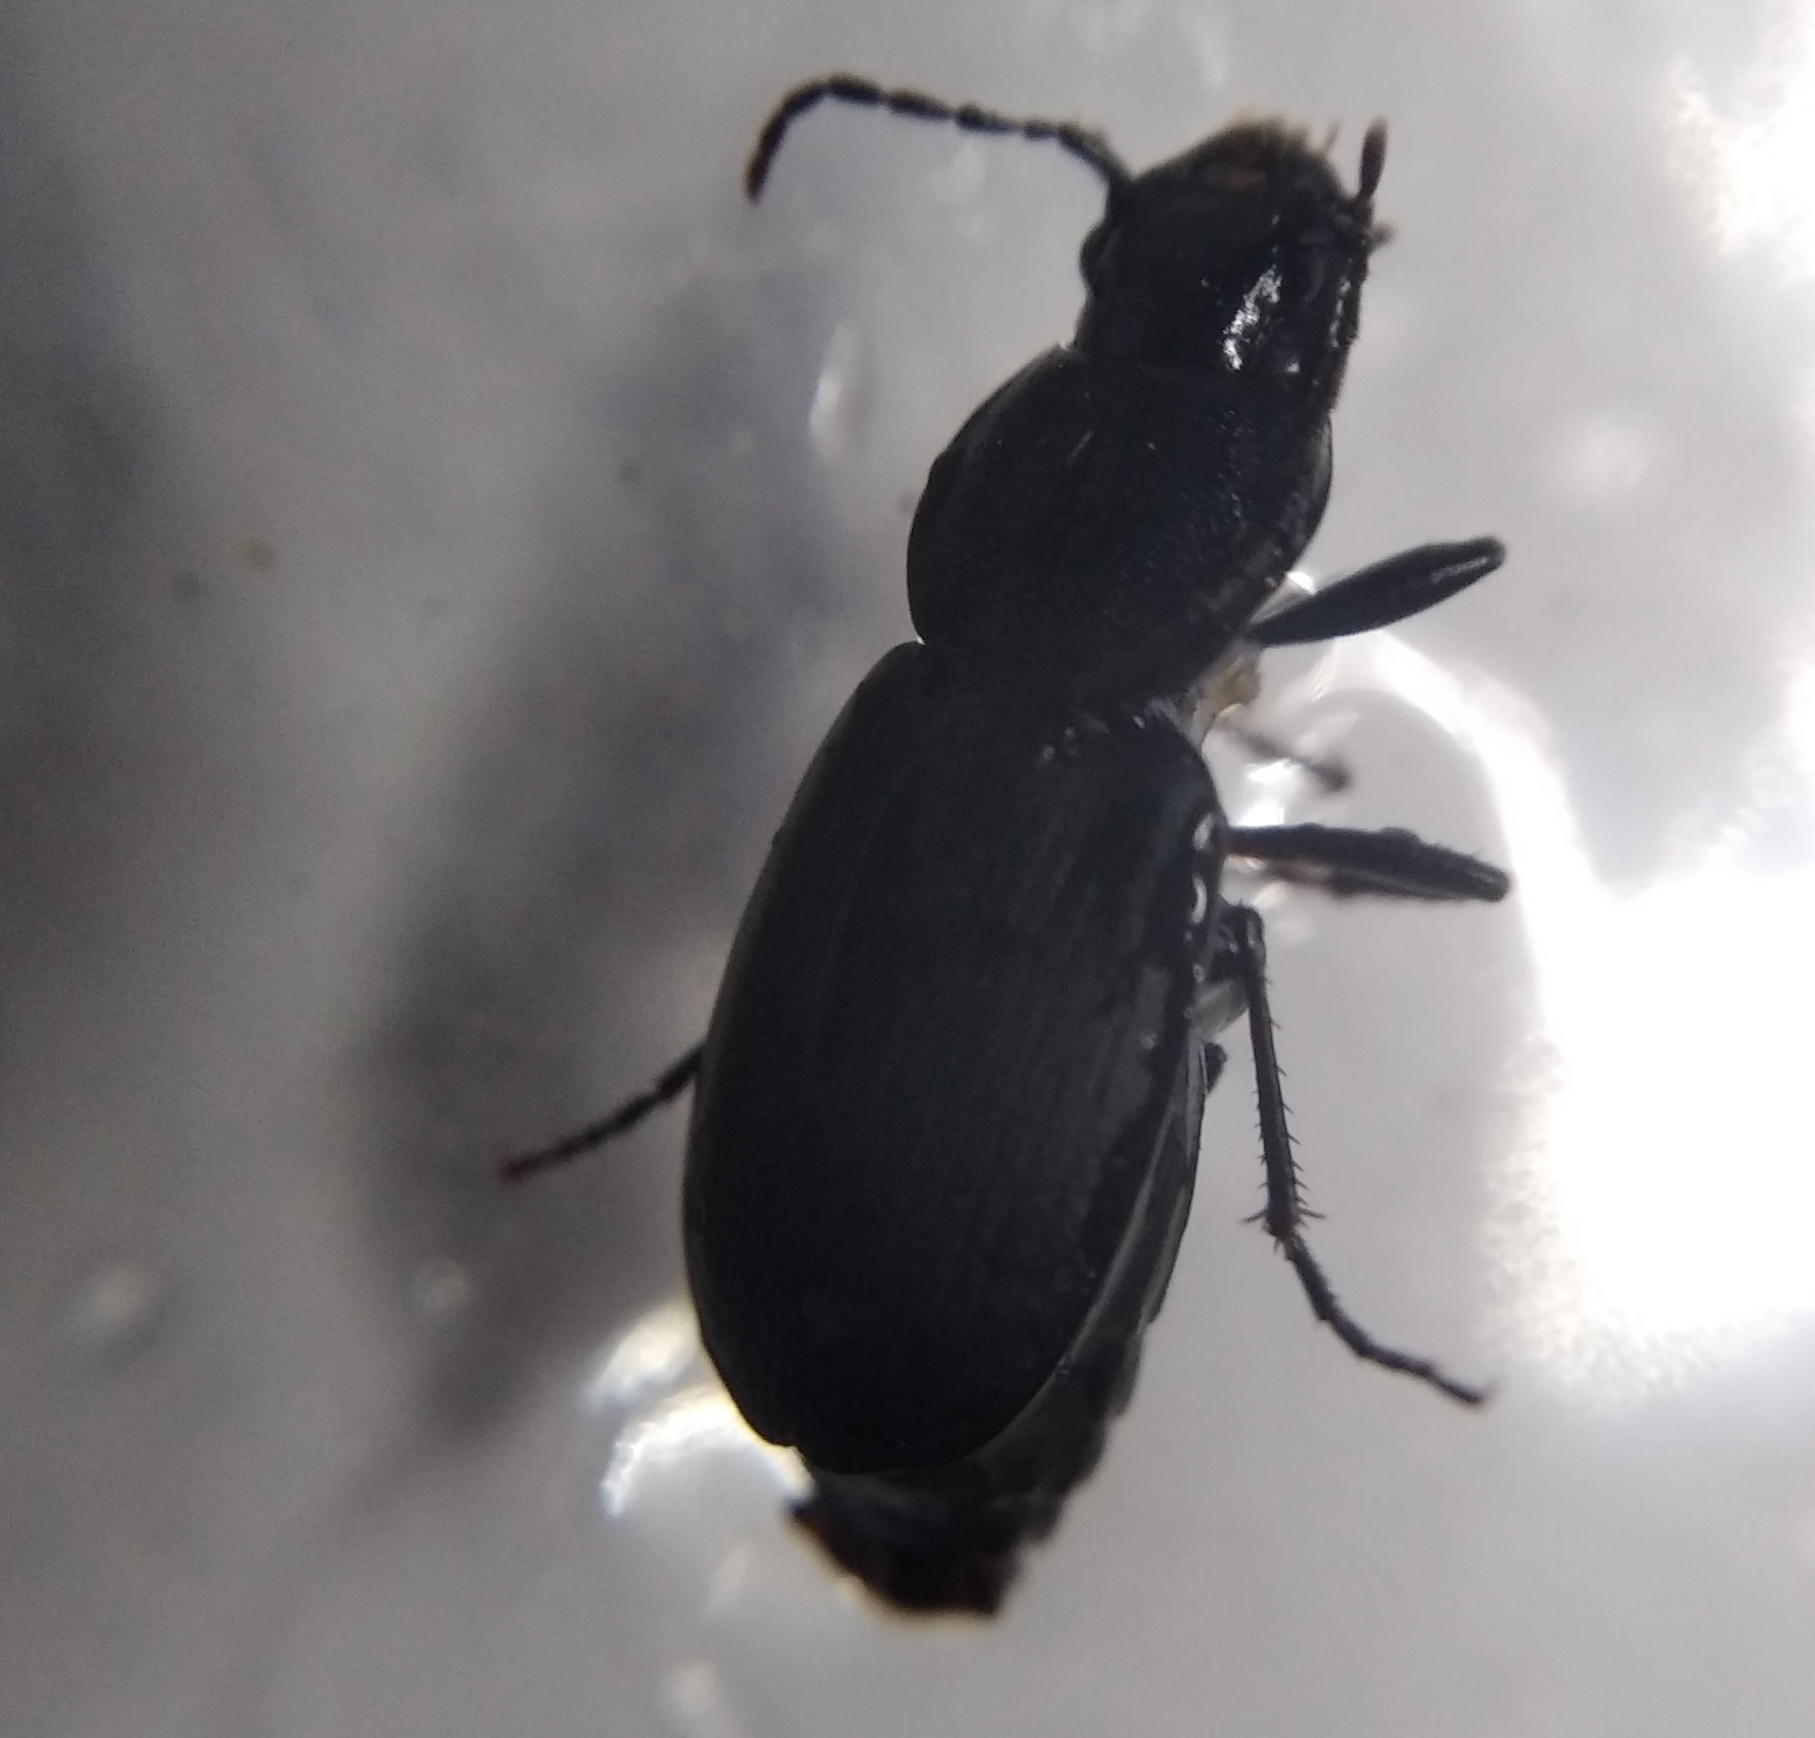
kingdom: Animalia
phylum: Arthropoda
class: Insecta
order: Coleoptera
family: Carabidae
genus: Licinus
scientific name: Licinus cassideus
